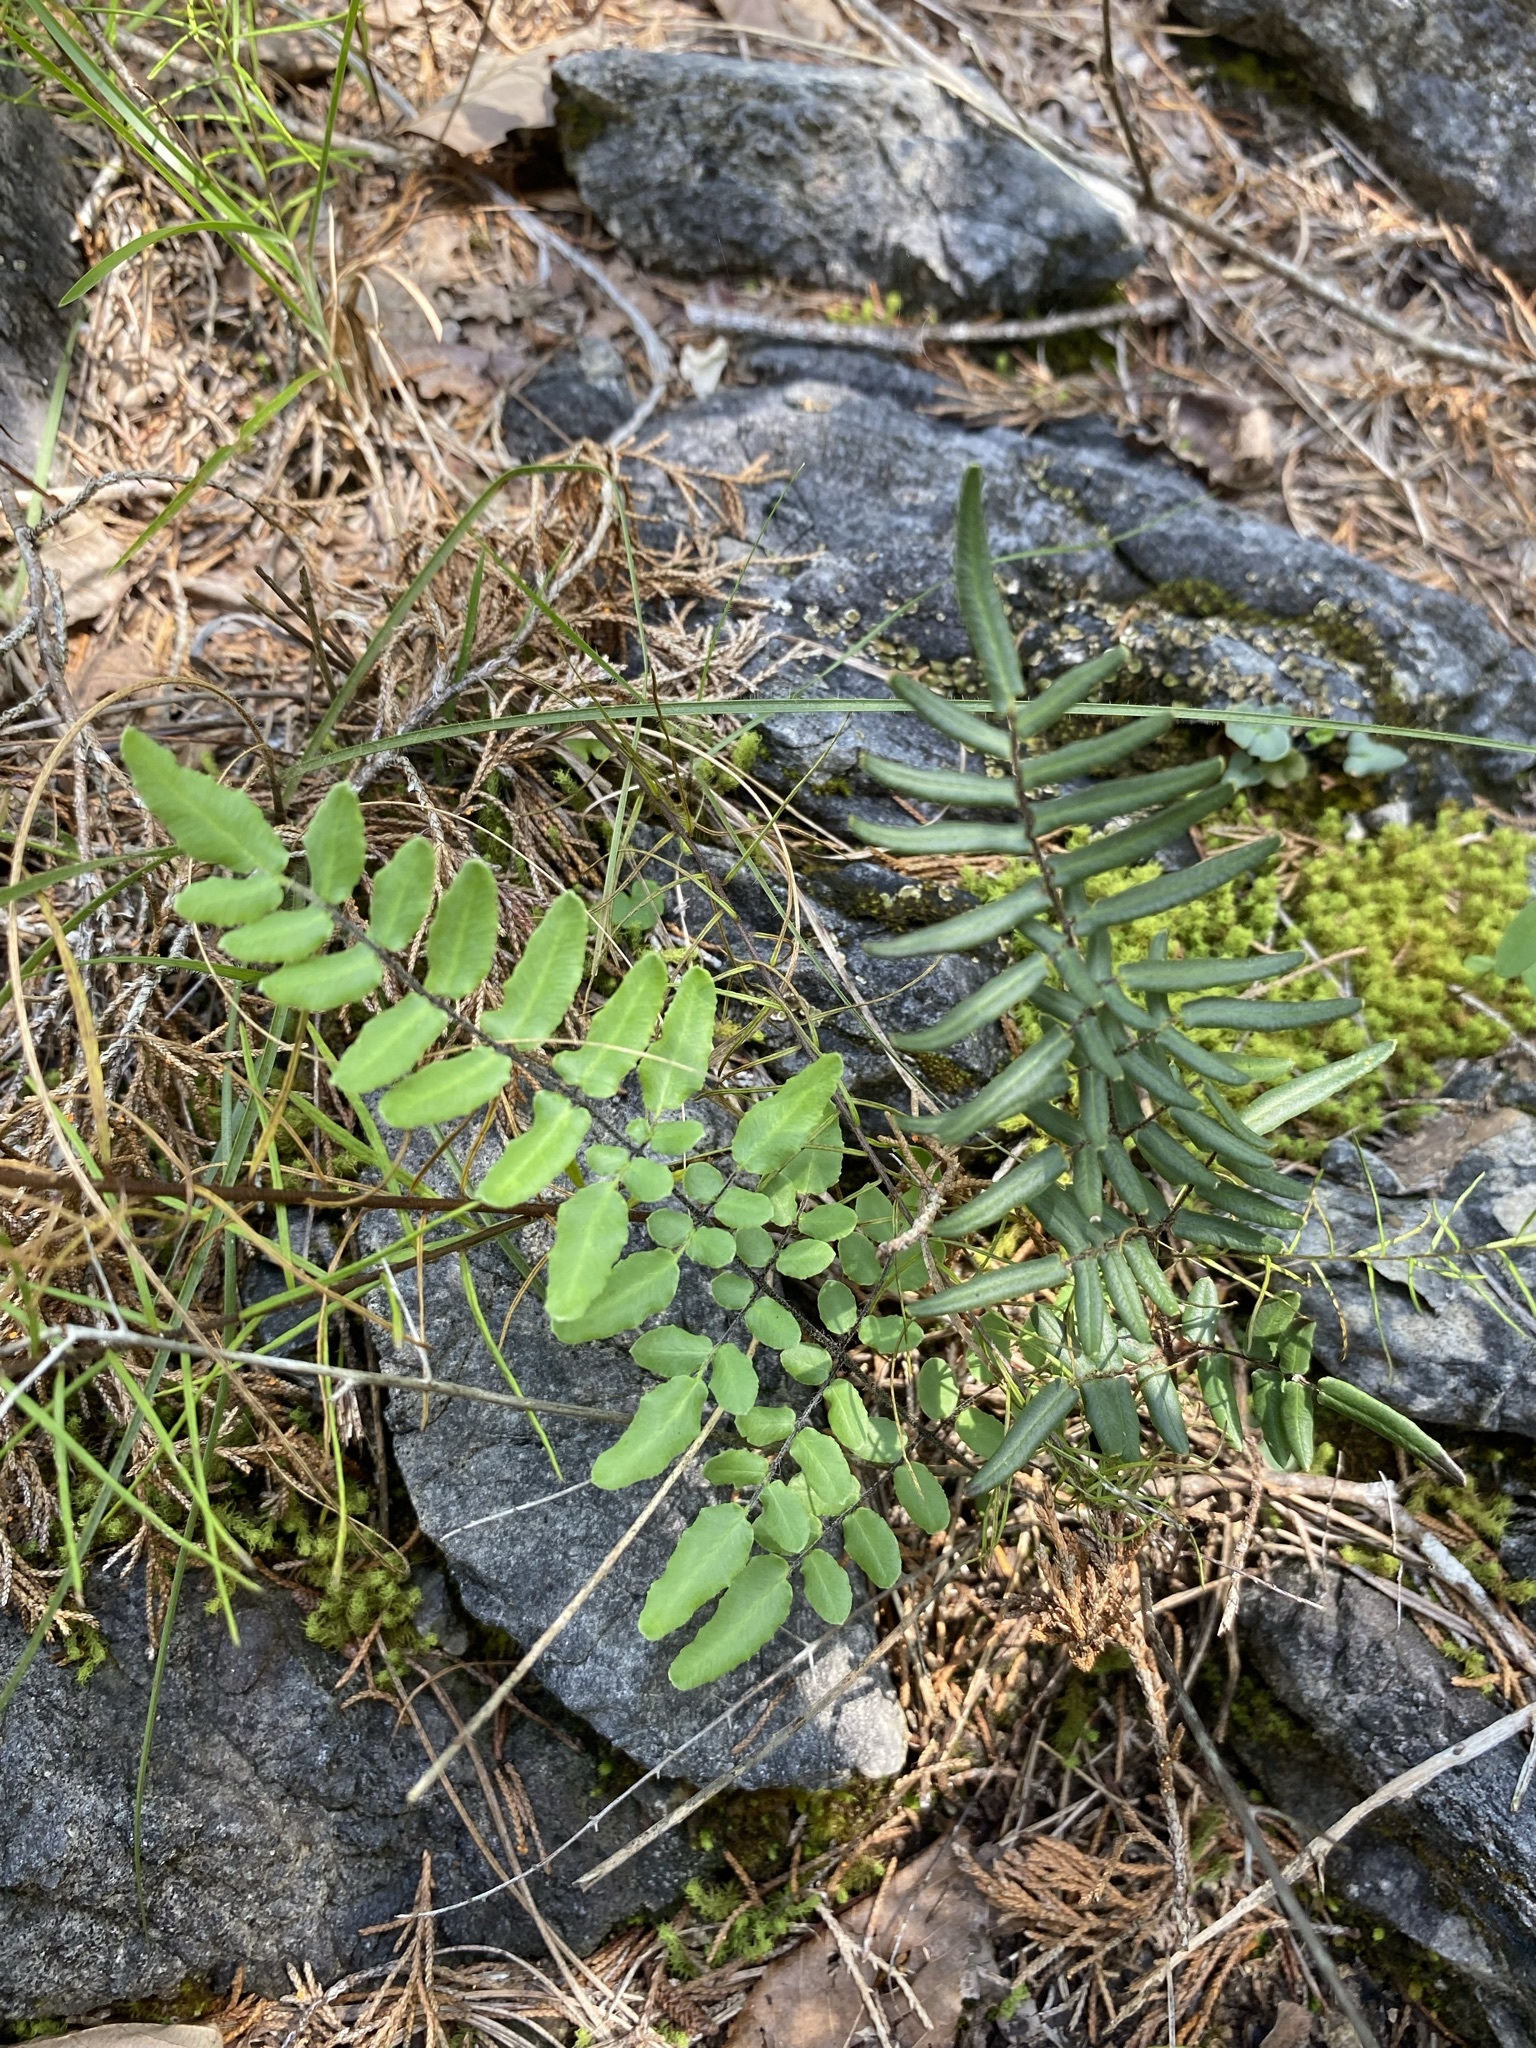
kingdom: Plantae
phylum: Tracheophyta
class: Polypodiopsida
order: Polypodiales
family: Pteridaceae
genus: Pellaea
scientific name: Pellaea atropurpurea
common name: Hairy cliffbrake
